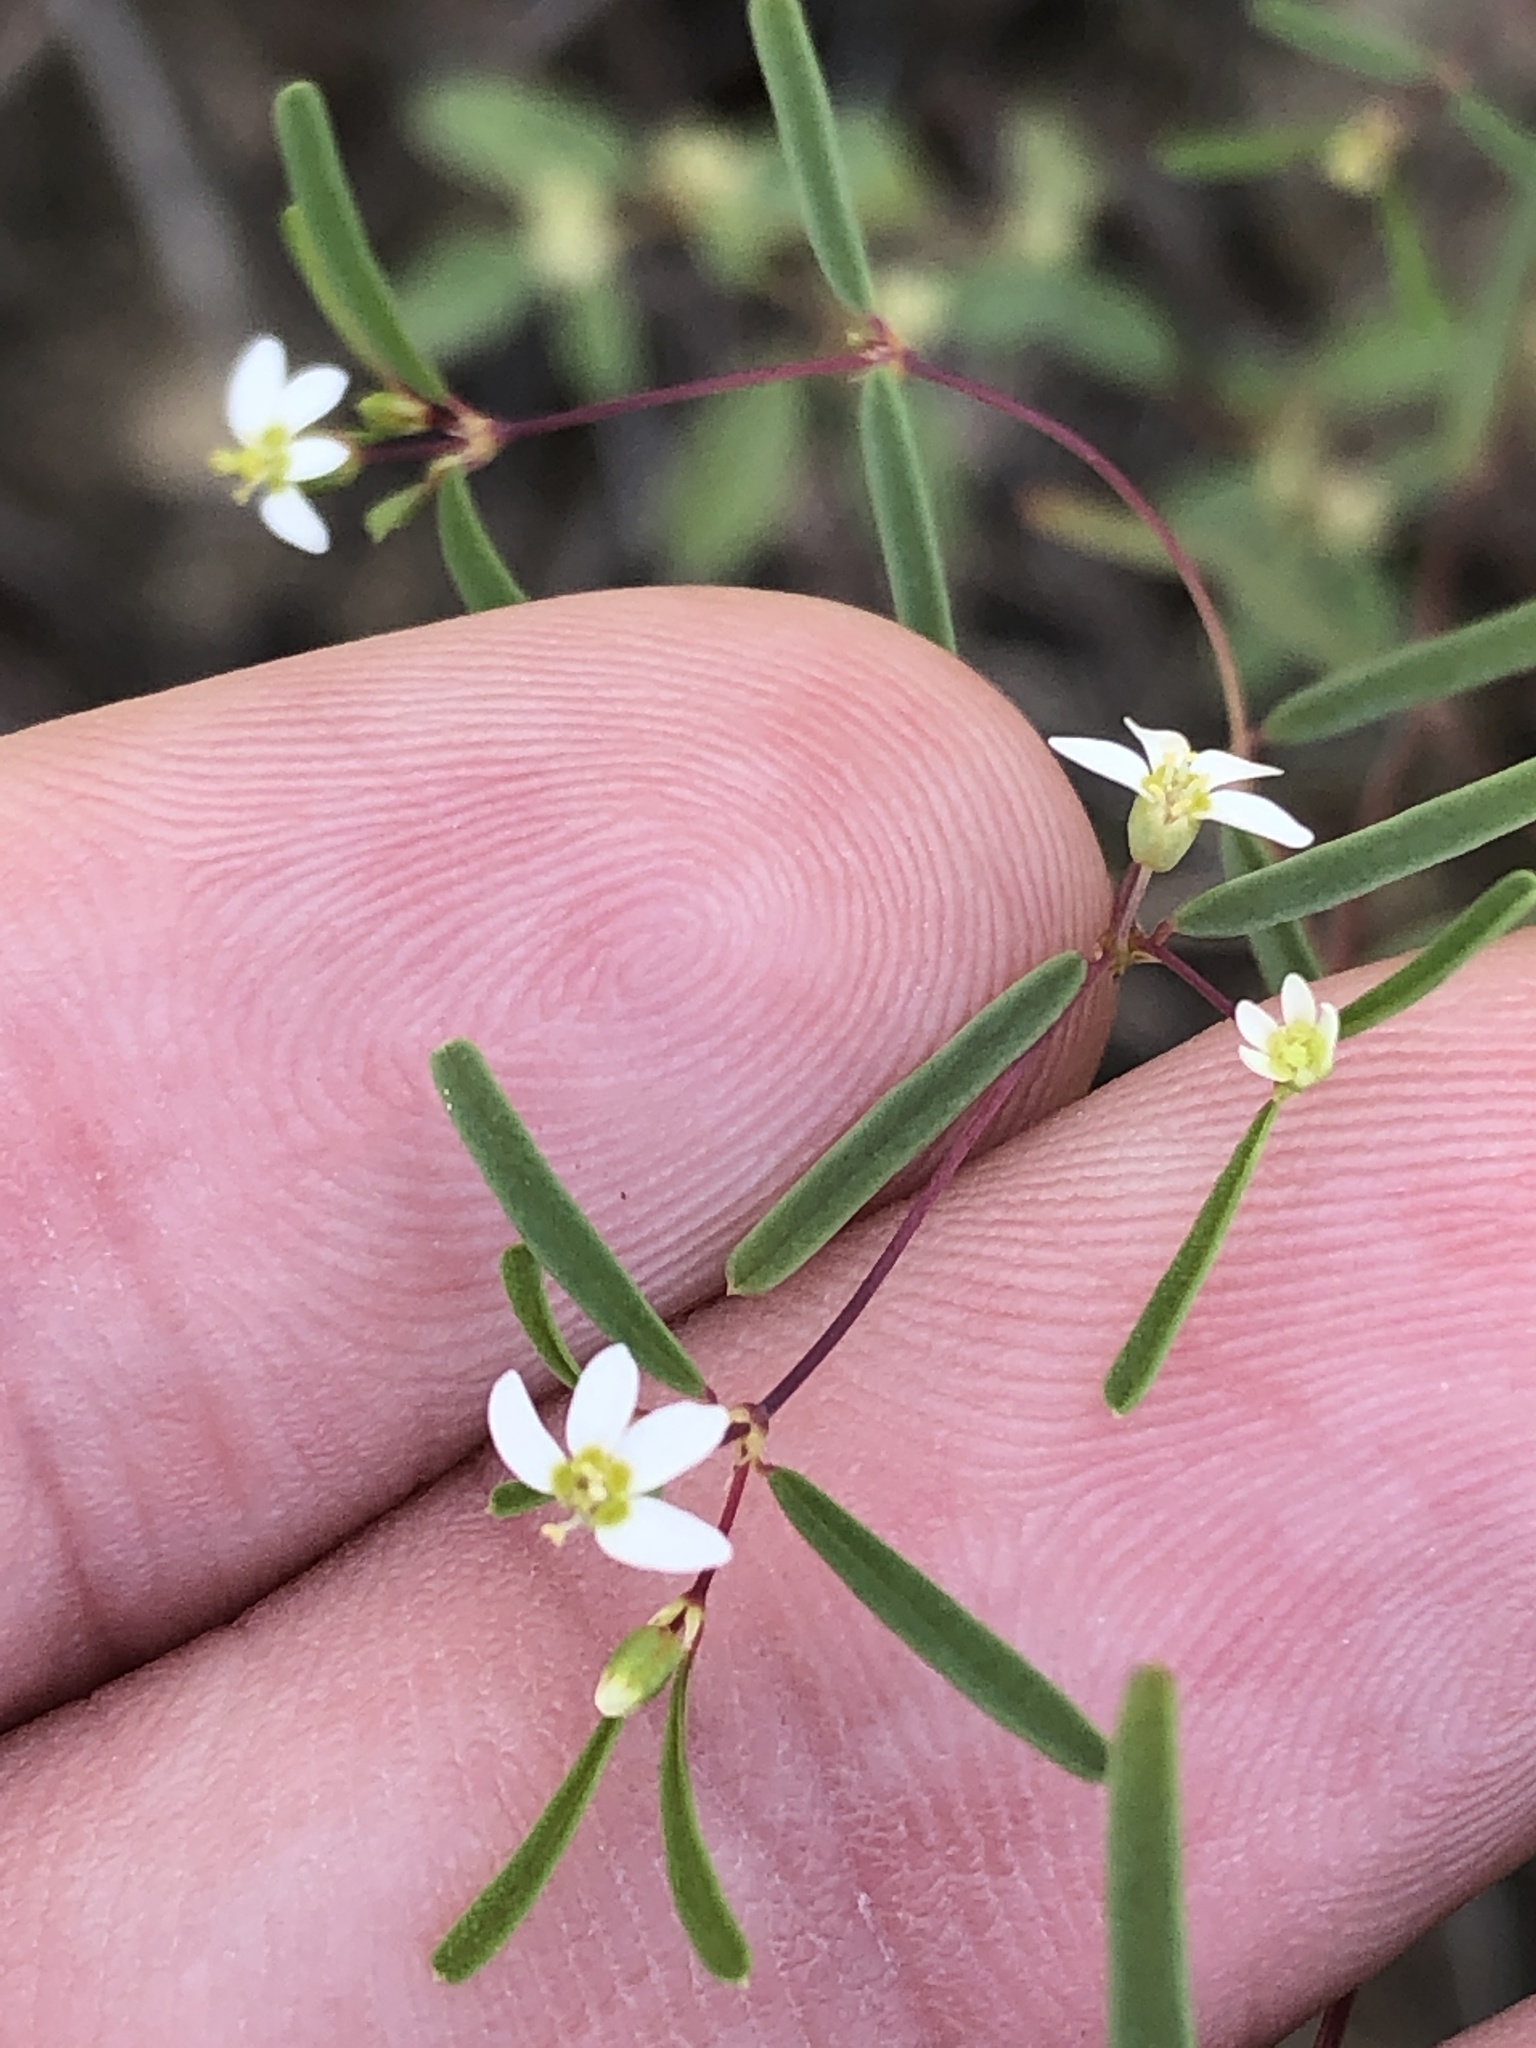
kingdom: Plantae
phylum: Tracheophyta
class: Magnoliopsida
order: Malpighiales
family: Euphorbiaceae
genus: Euphorbia
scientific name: Euphorbia missurica
